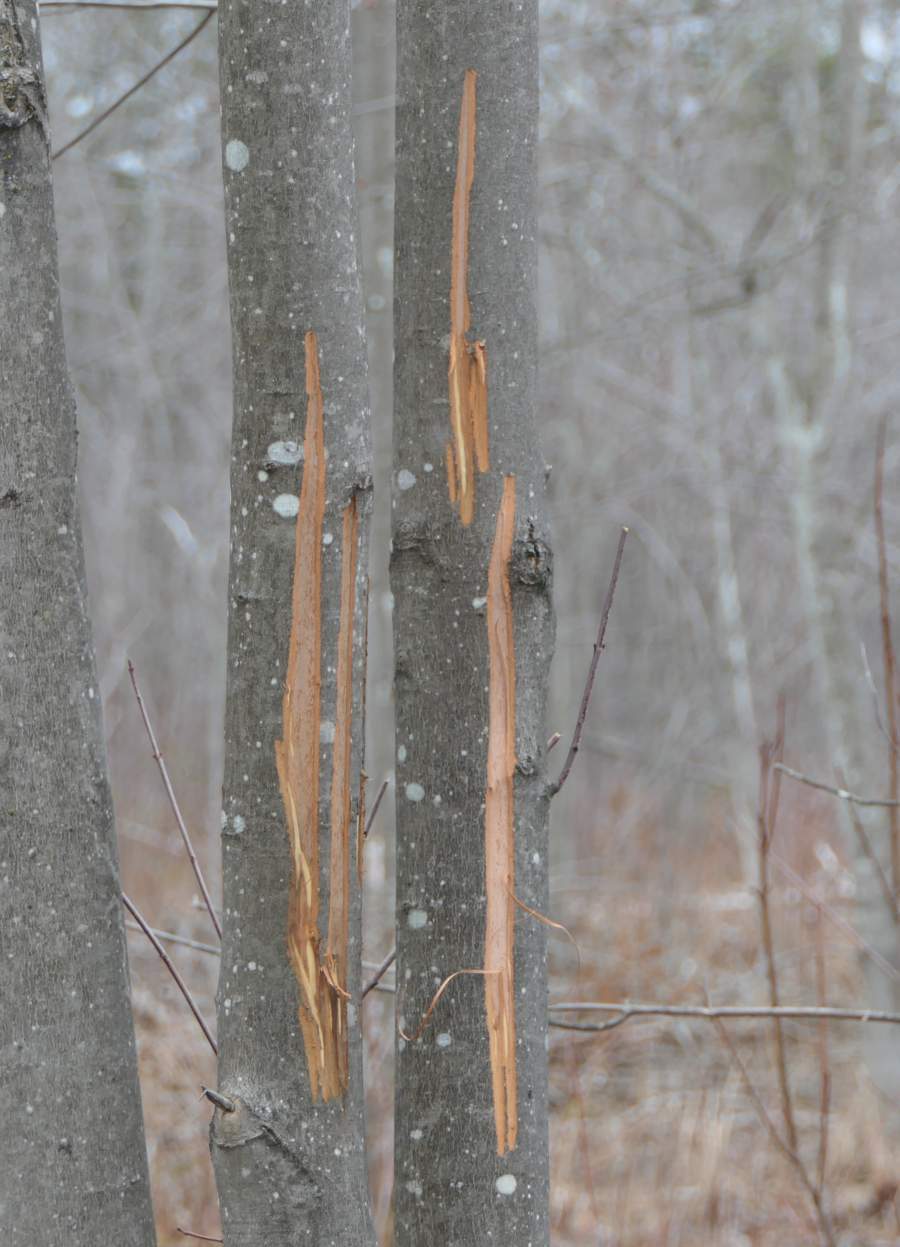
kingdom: Animalia
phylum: Chordata
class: Mammalia
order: Artiodactyla
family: Cervidae
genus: Alces
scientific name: Alces alces
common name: Moose
